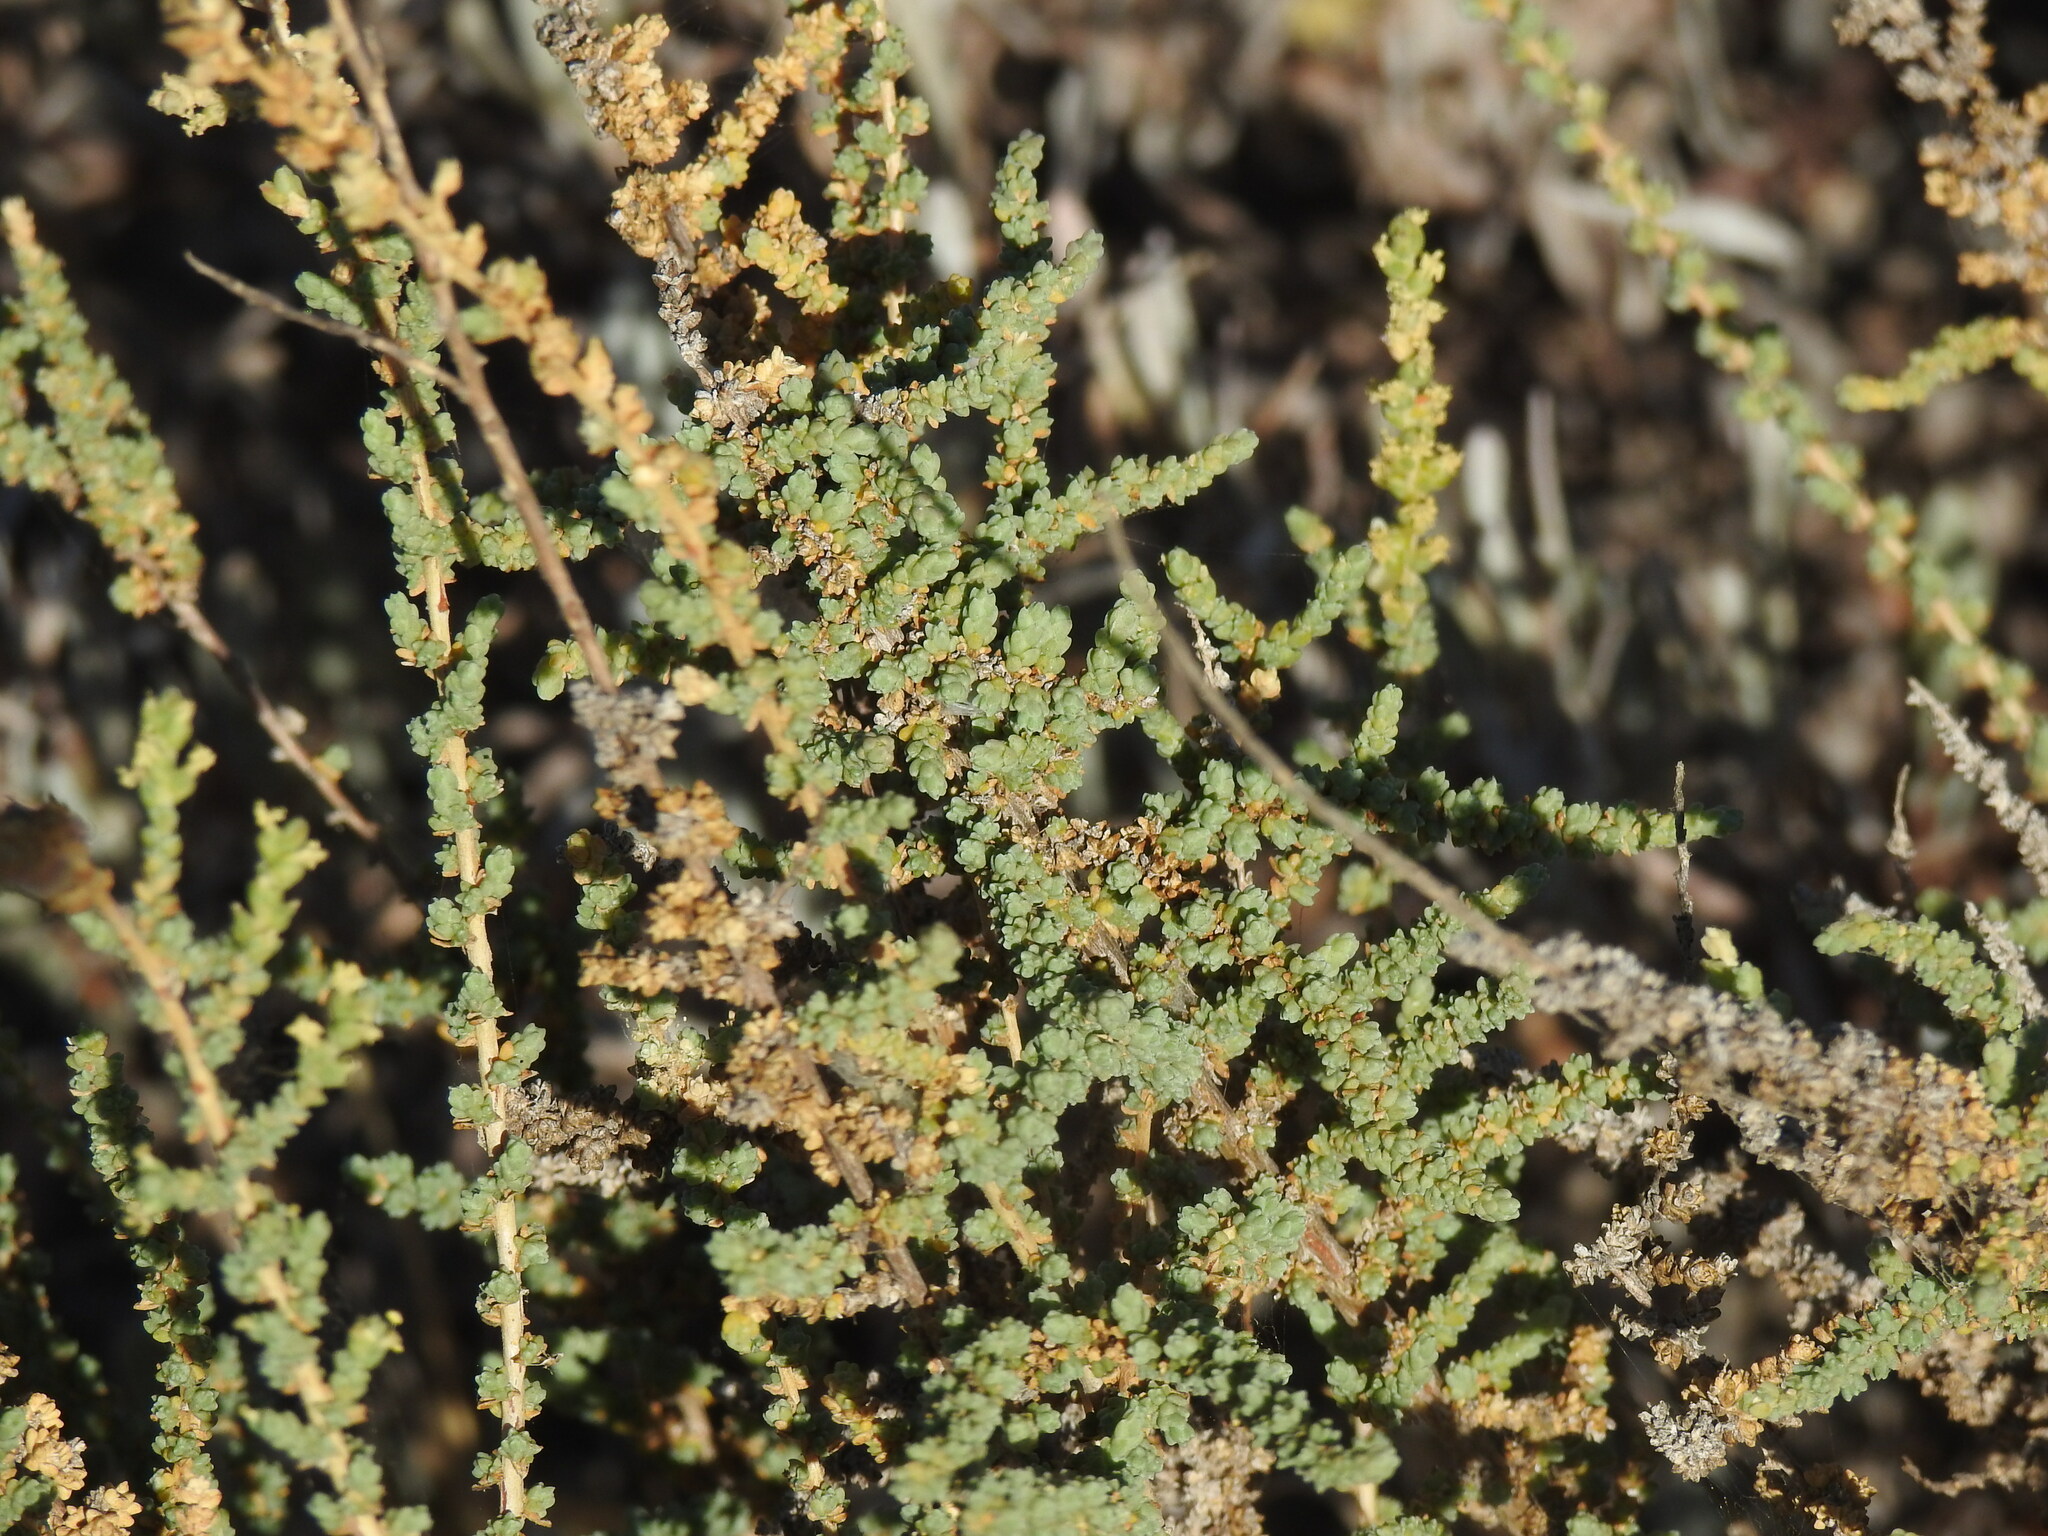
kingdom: Plantae
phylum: Tracheophyta
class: Magnoliopsida
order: Caryophyllales
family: Amaranthaceae
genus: Nitrosalsola
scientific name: Nitrosalsola vermiculata
